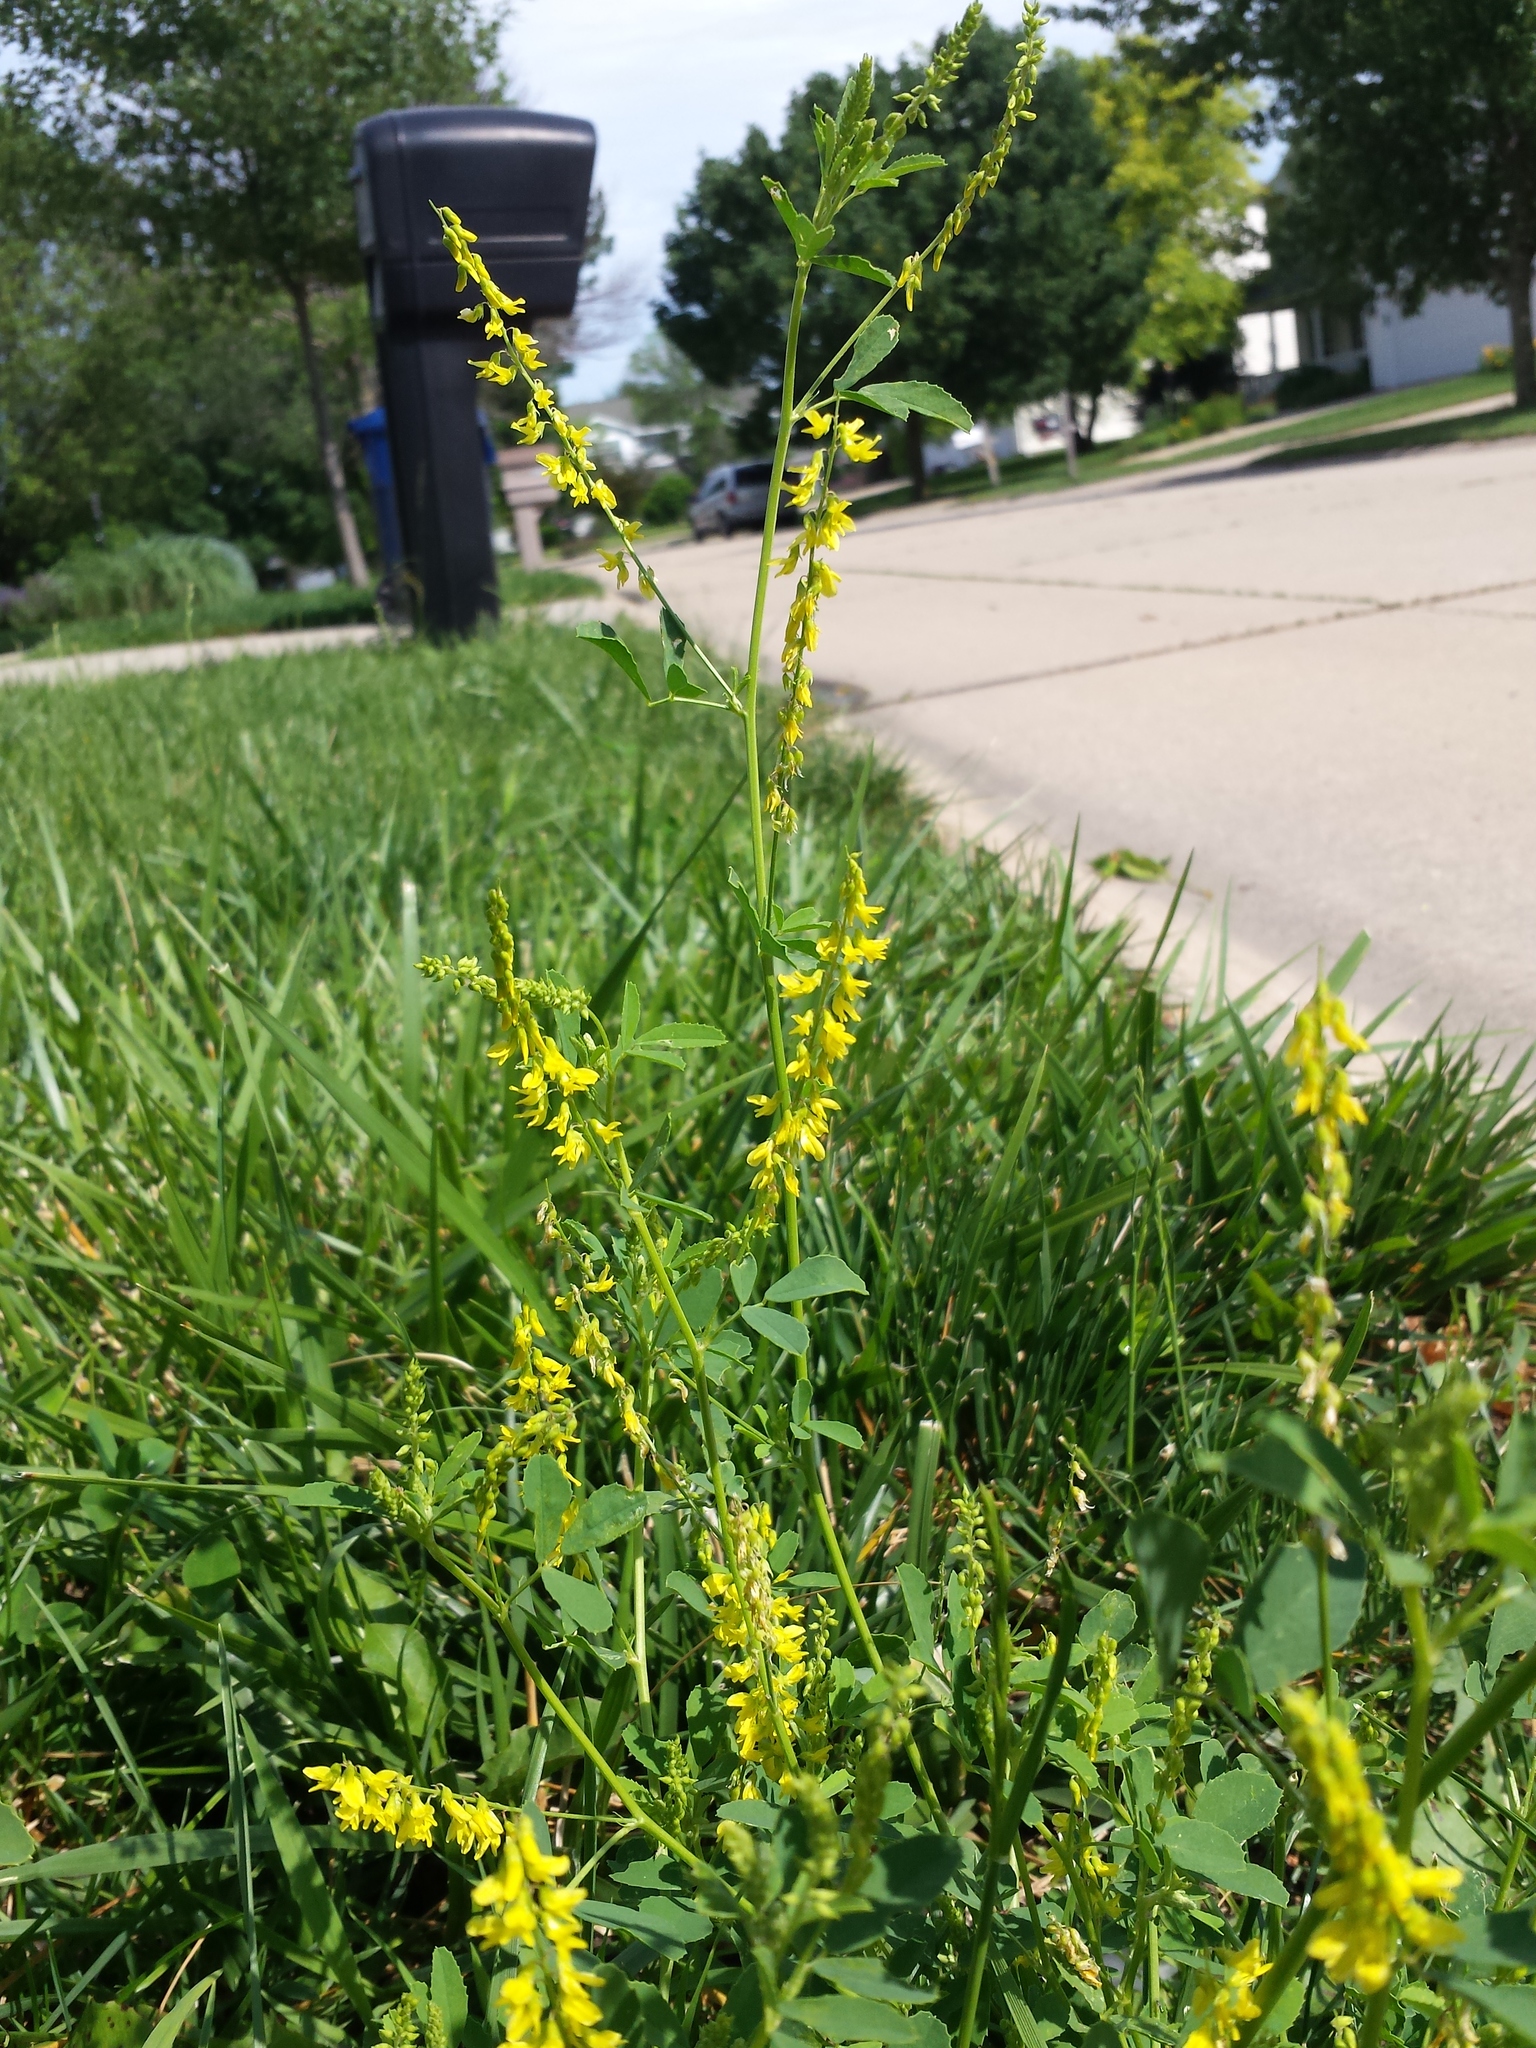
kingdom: Plantae
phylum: Tracheophyta
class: Magnoliopsida
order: Fabales
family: Fabaceae
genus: Melilotus
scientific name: Melilotus officinalis
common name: Sweetclover
